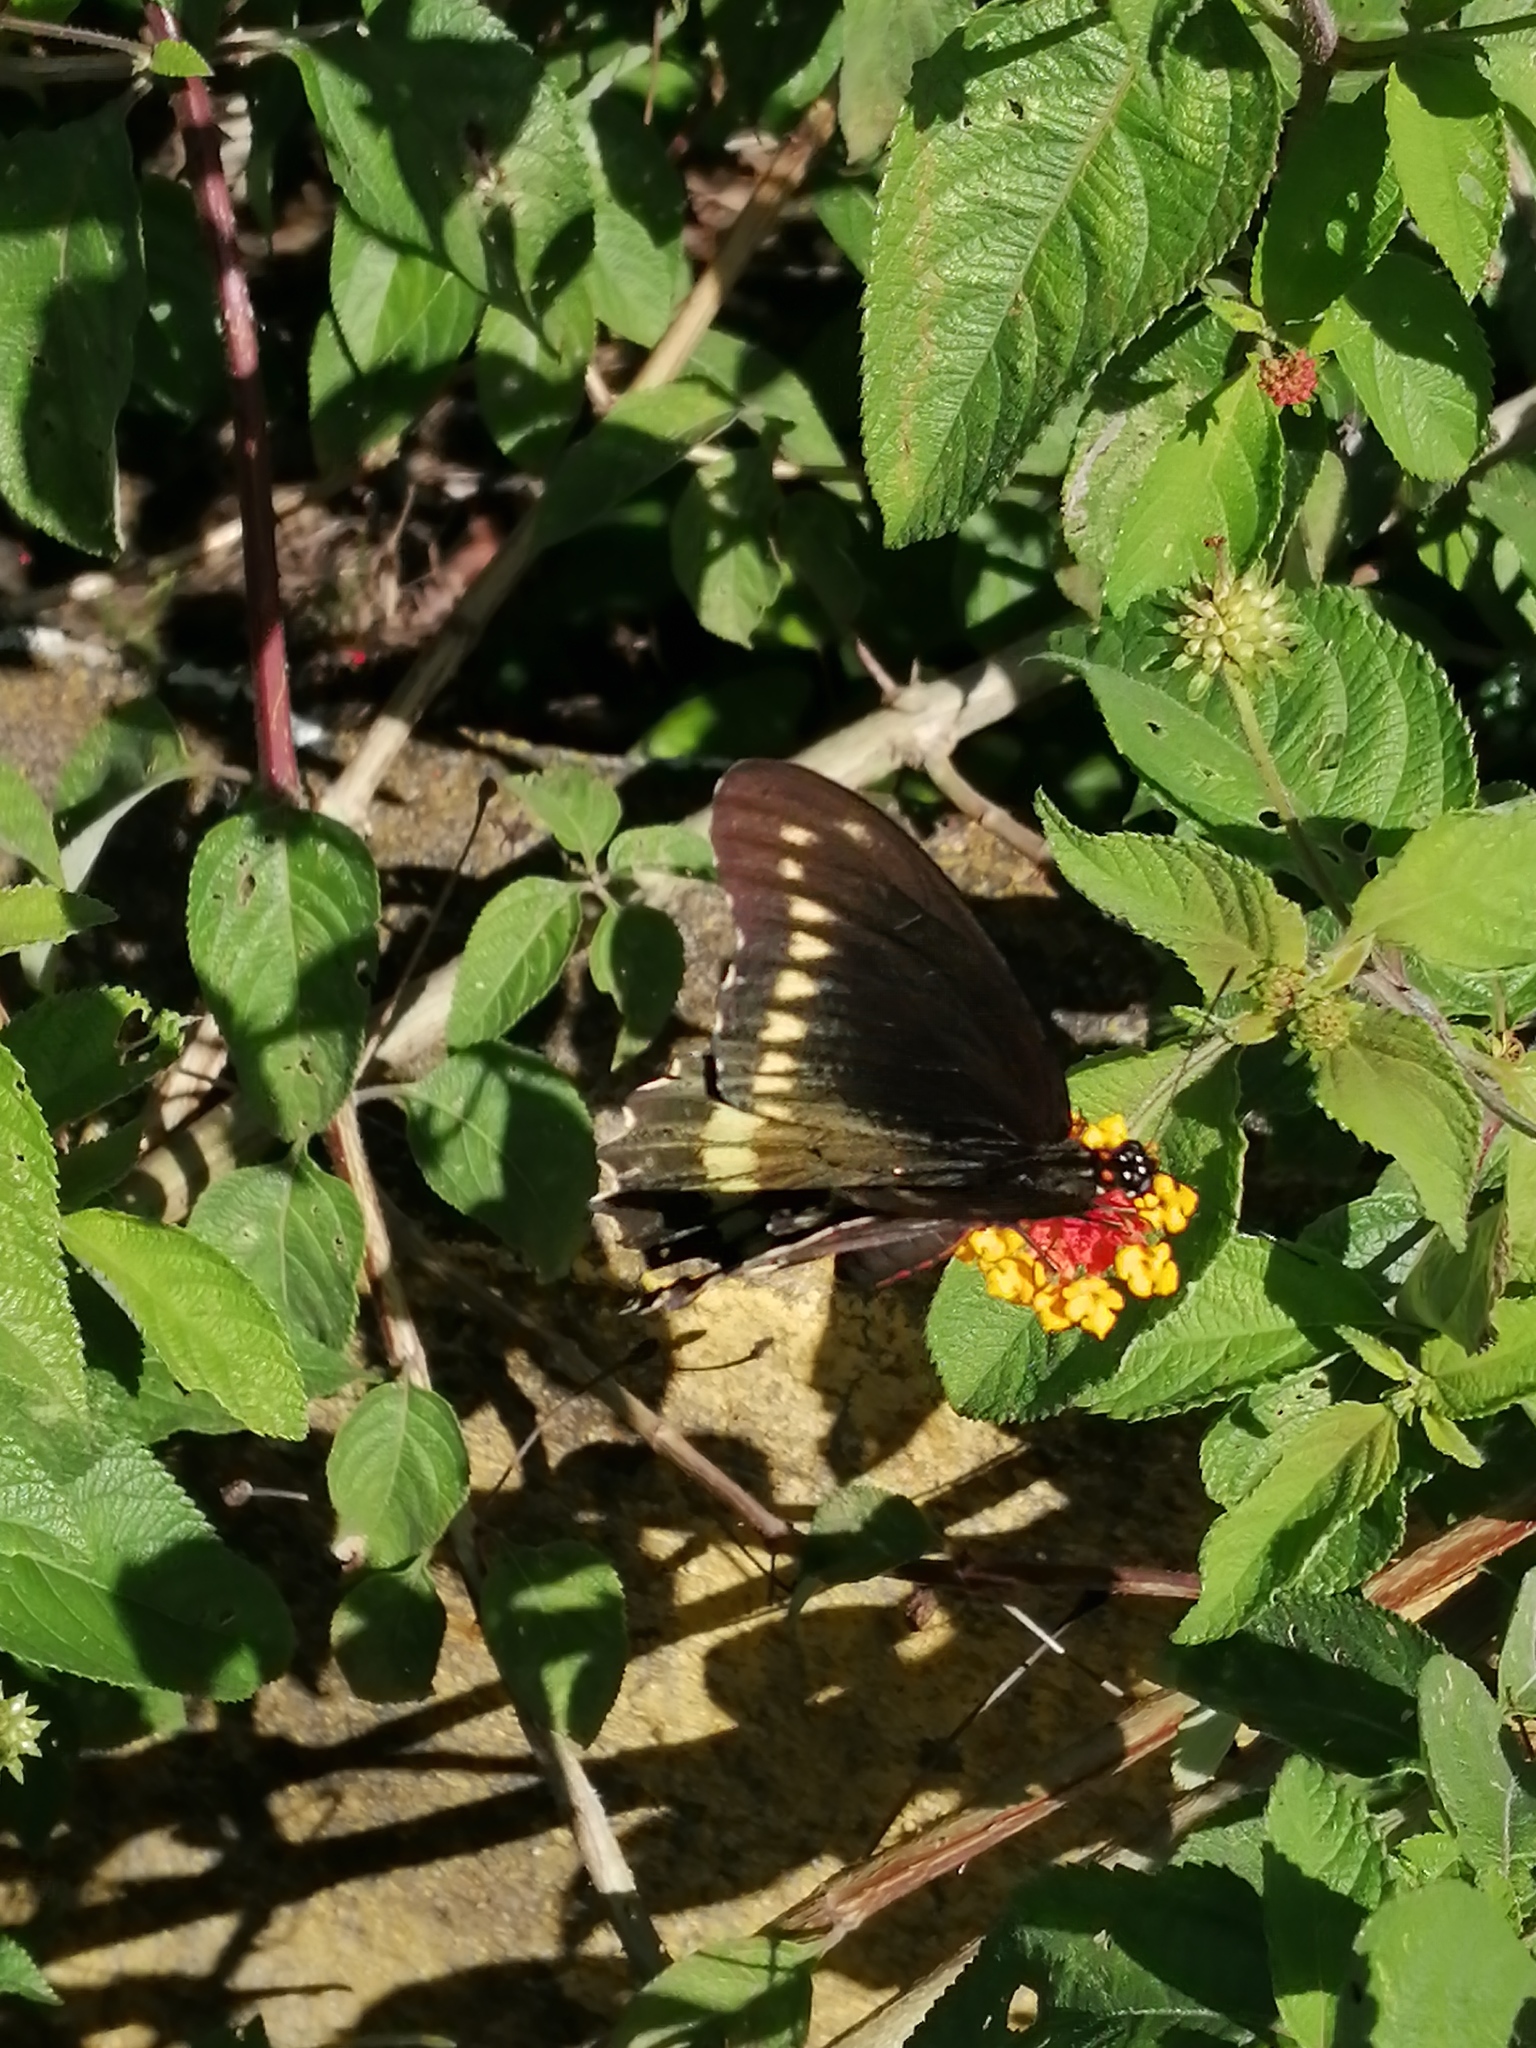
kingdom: Animalia
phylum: Arthropoda
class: Insecta
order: Lepidoptera
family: Papilionidae
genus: Battus
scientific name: Battus polydamas
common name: Polydamas swallowtail
